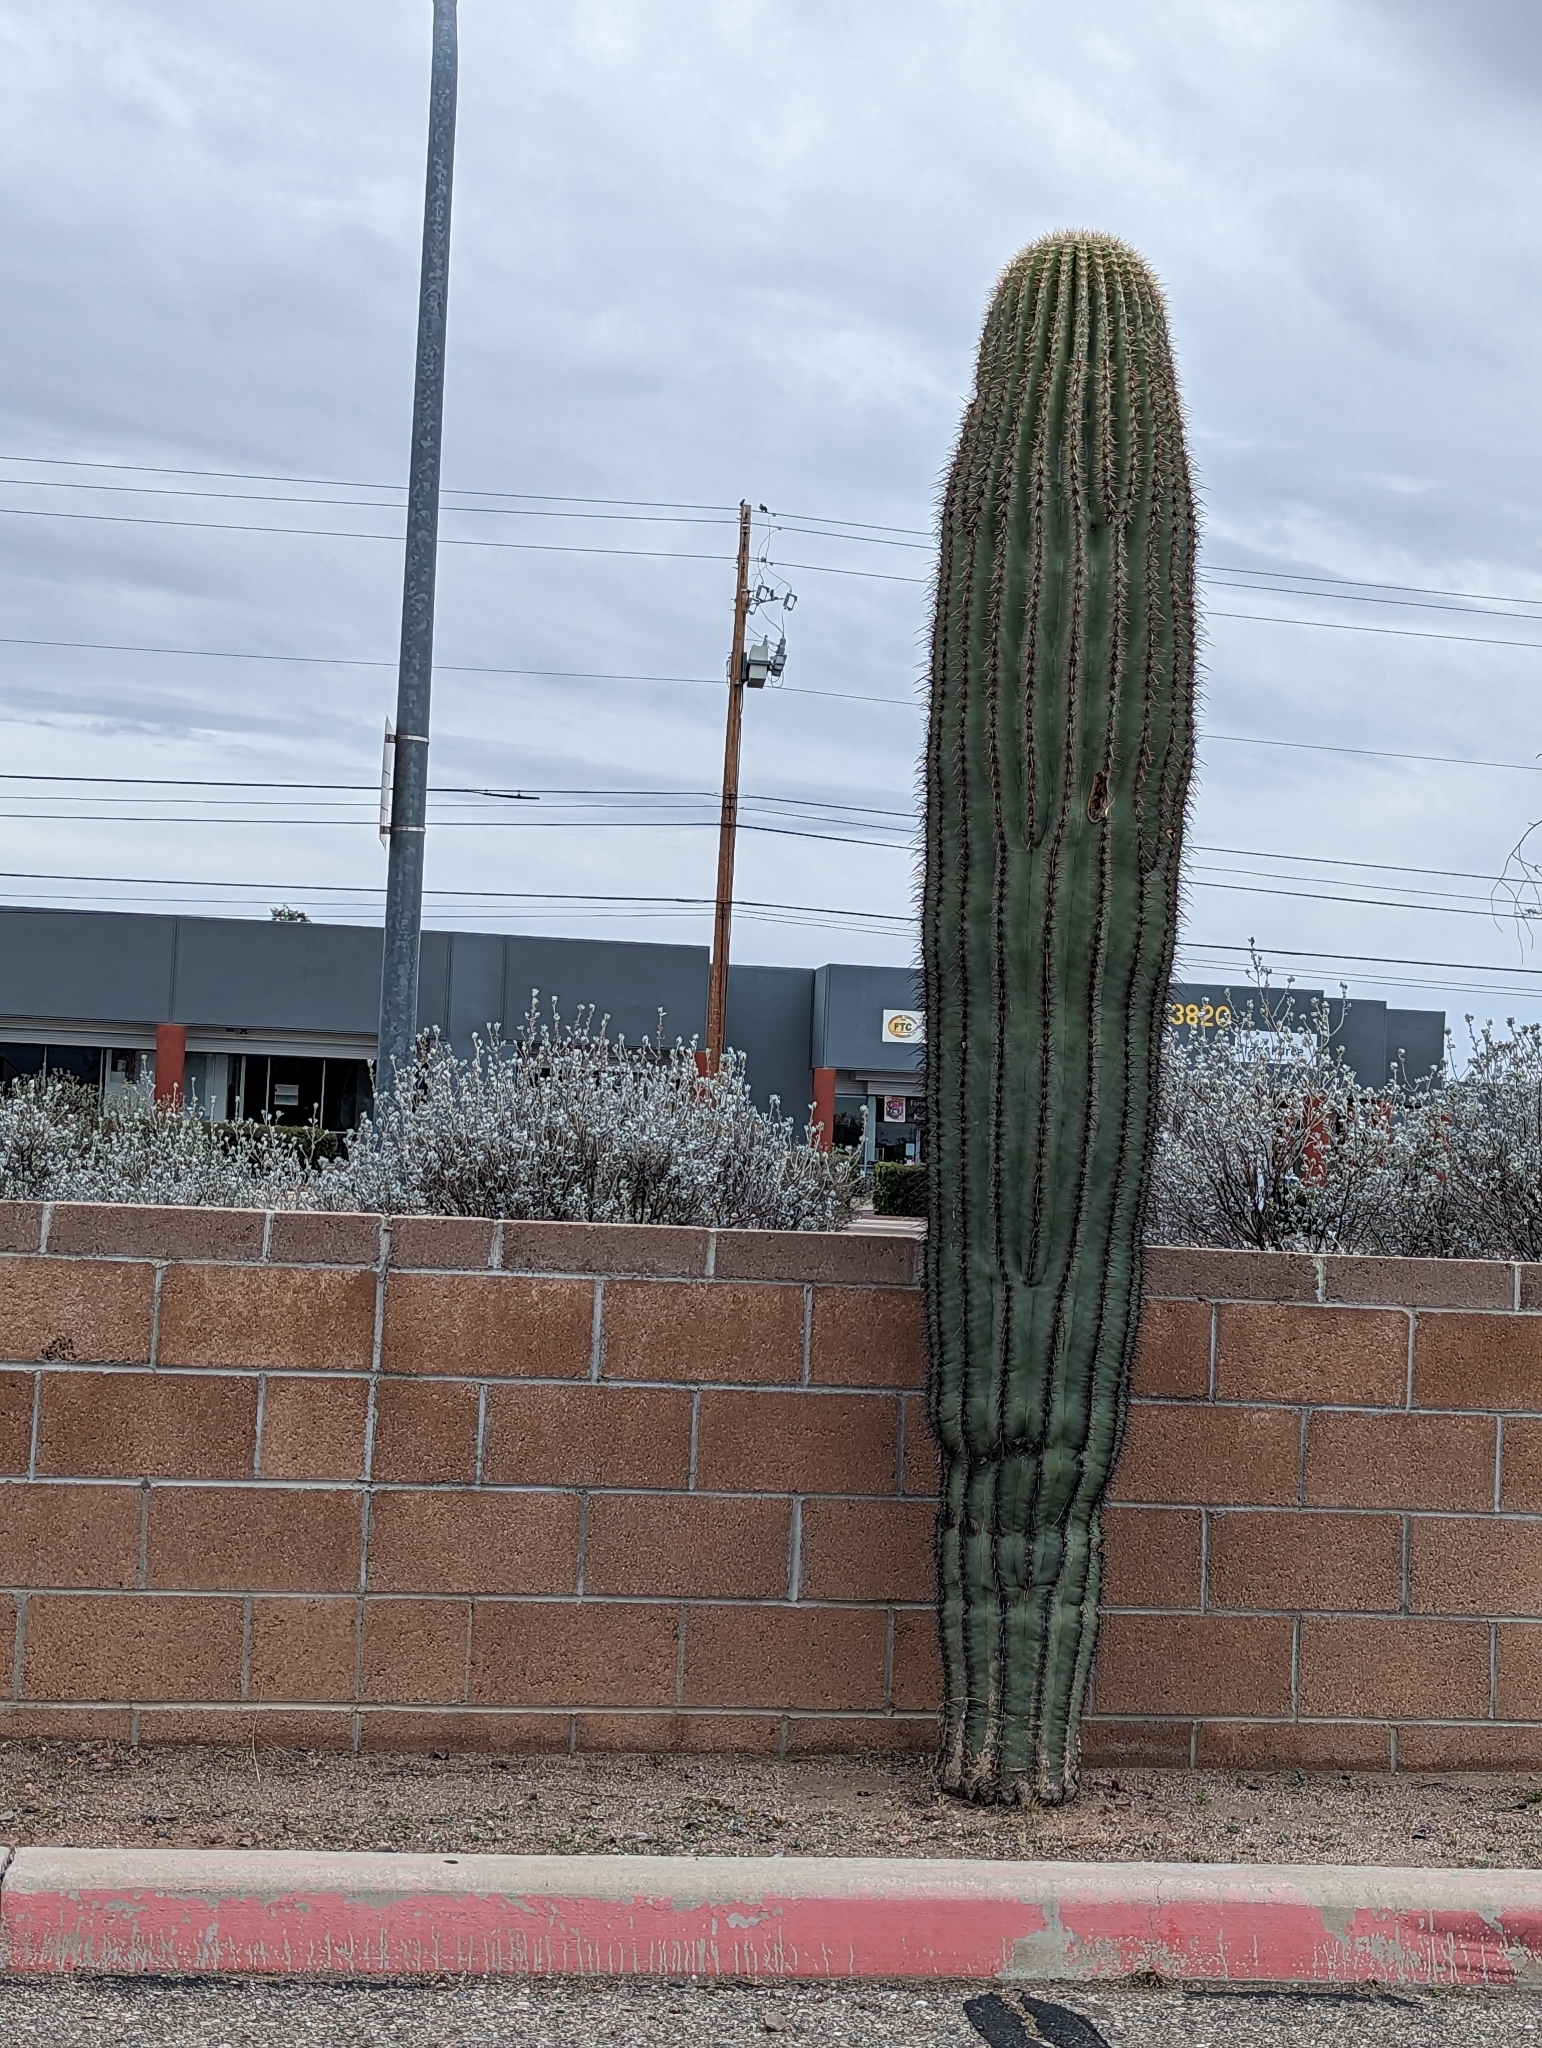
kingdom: Plantae
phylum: Tracheophyta
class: Magnoliopsida
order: Caryophyllales
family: Cactaceae
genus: Carnegiea
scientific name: Carnegiea gigantea
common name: Saguaro
